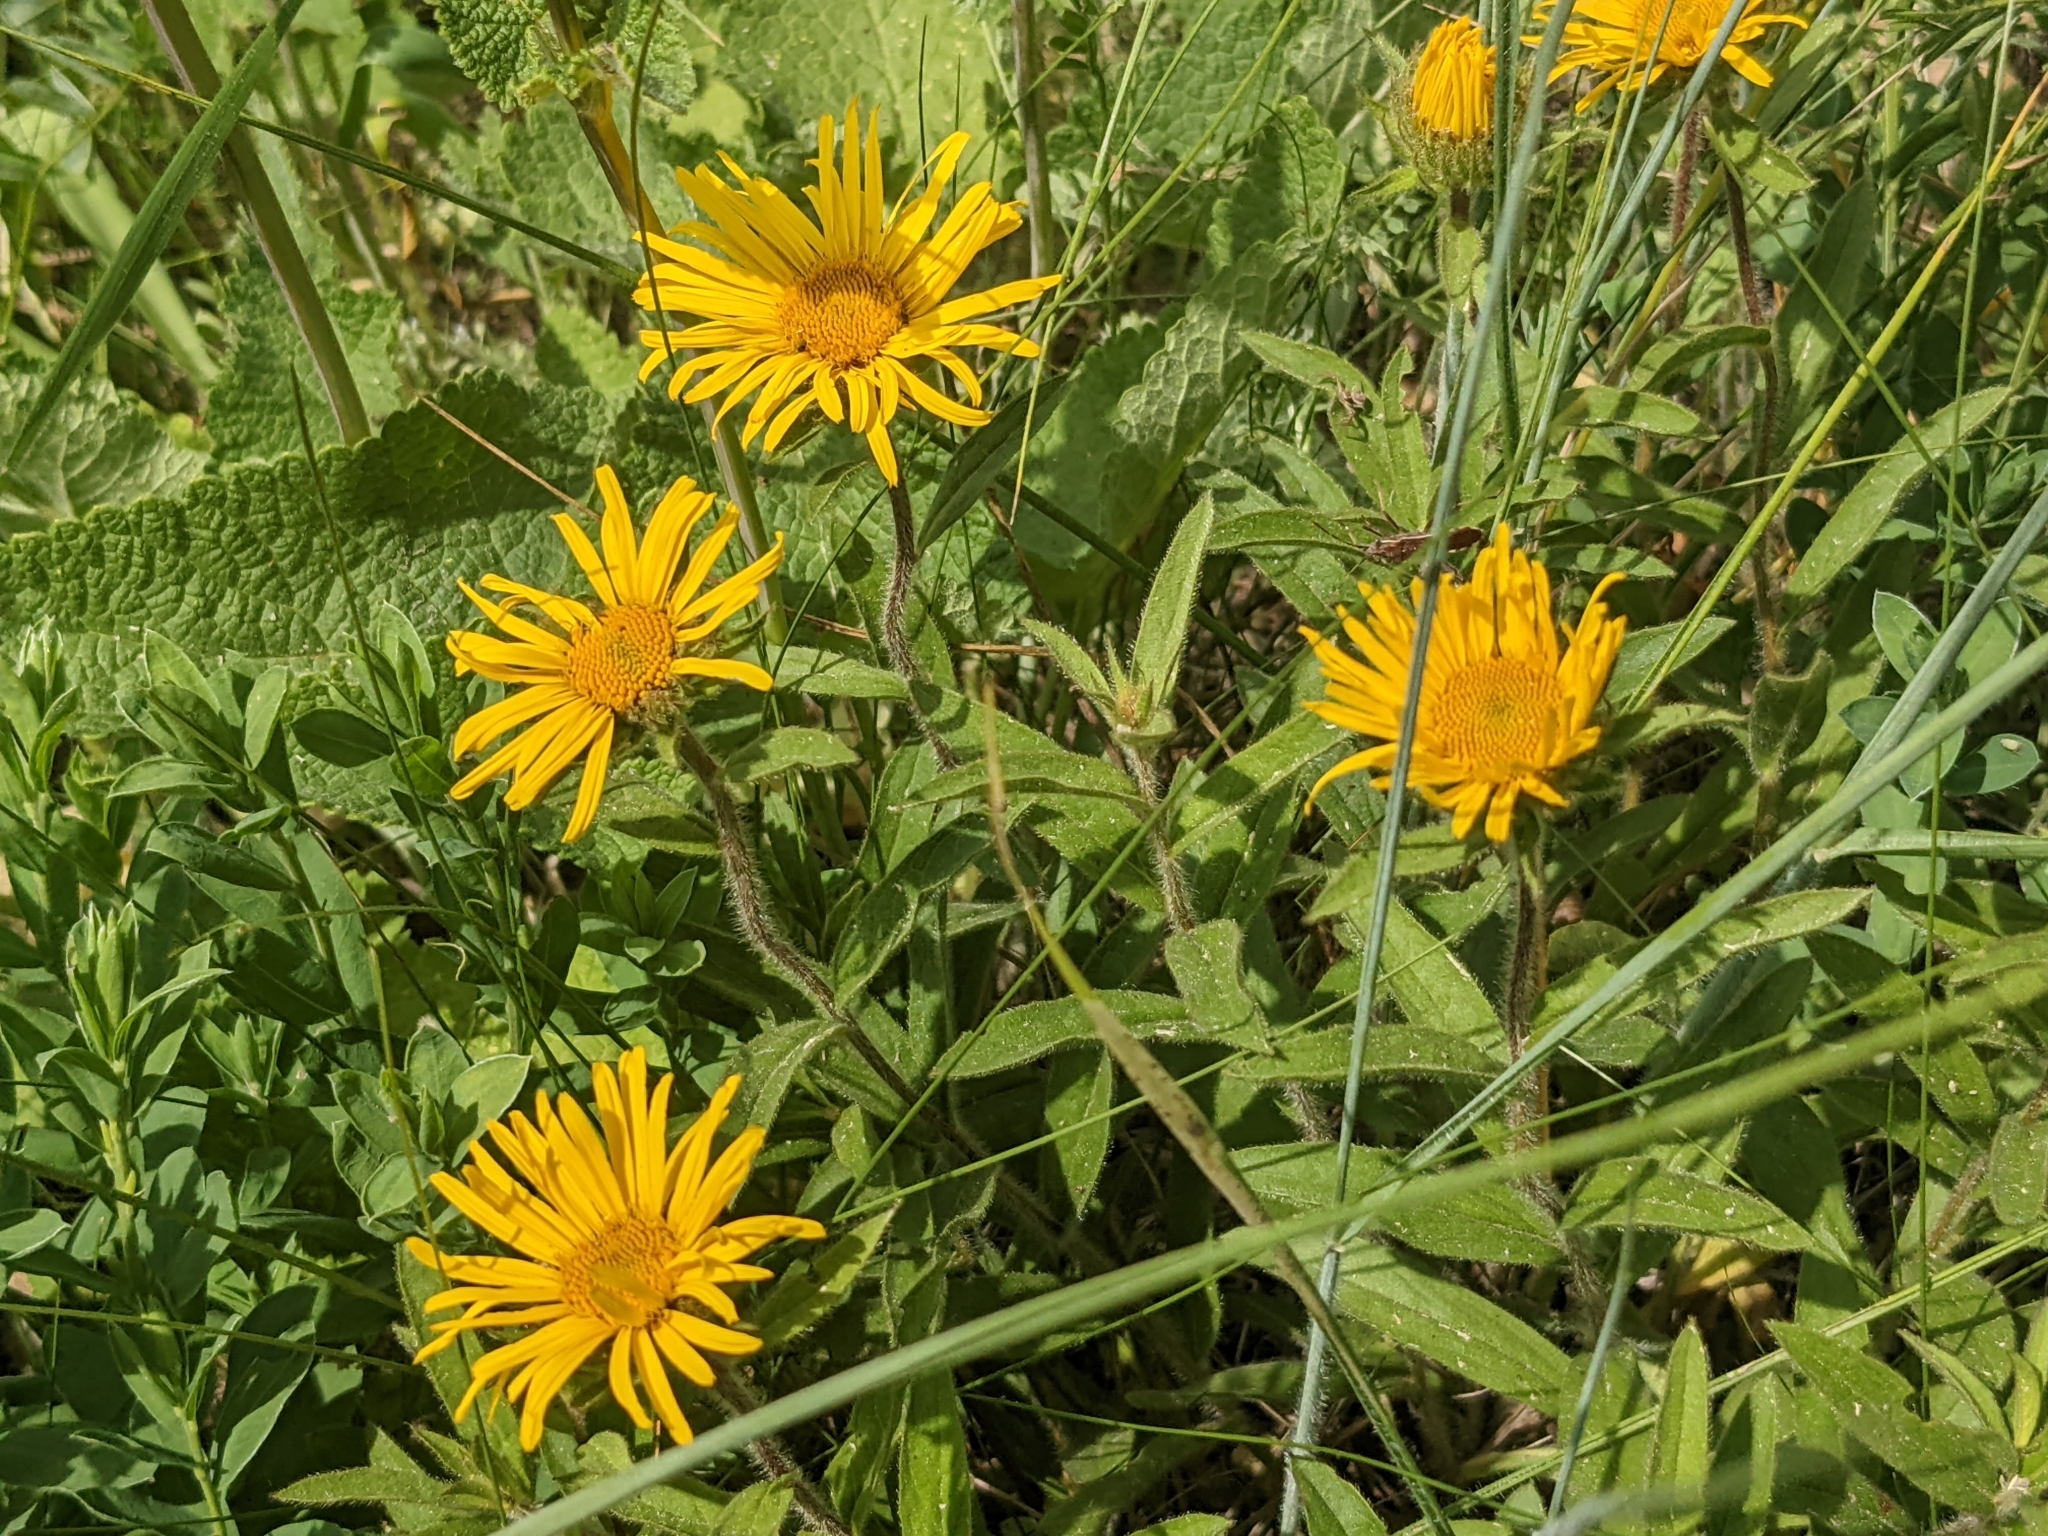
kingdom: Plantae
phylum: Tracheophyta
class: Magnoliopsida
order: Asterales
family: Asteraceae
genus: Pentanema
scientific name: Pentanema hirtum
